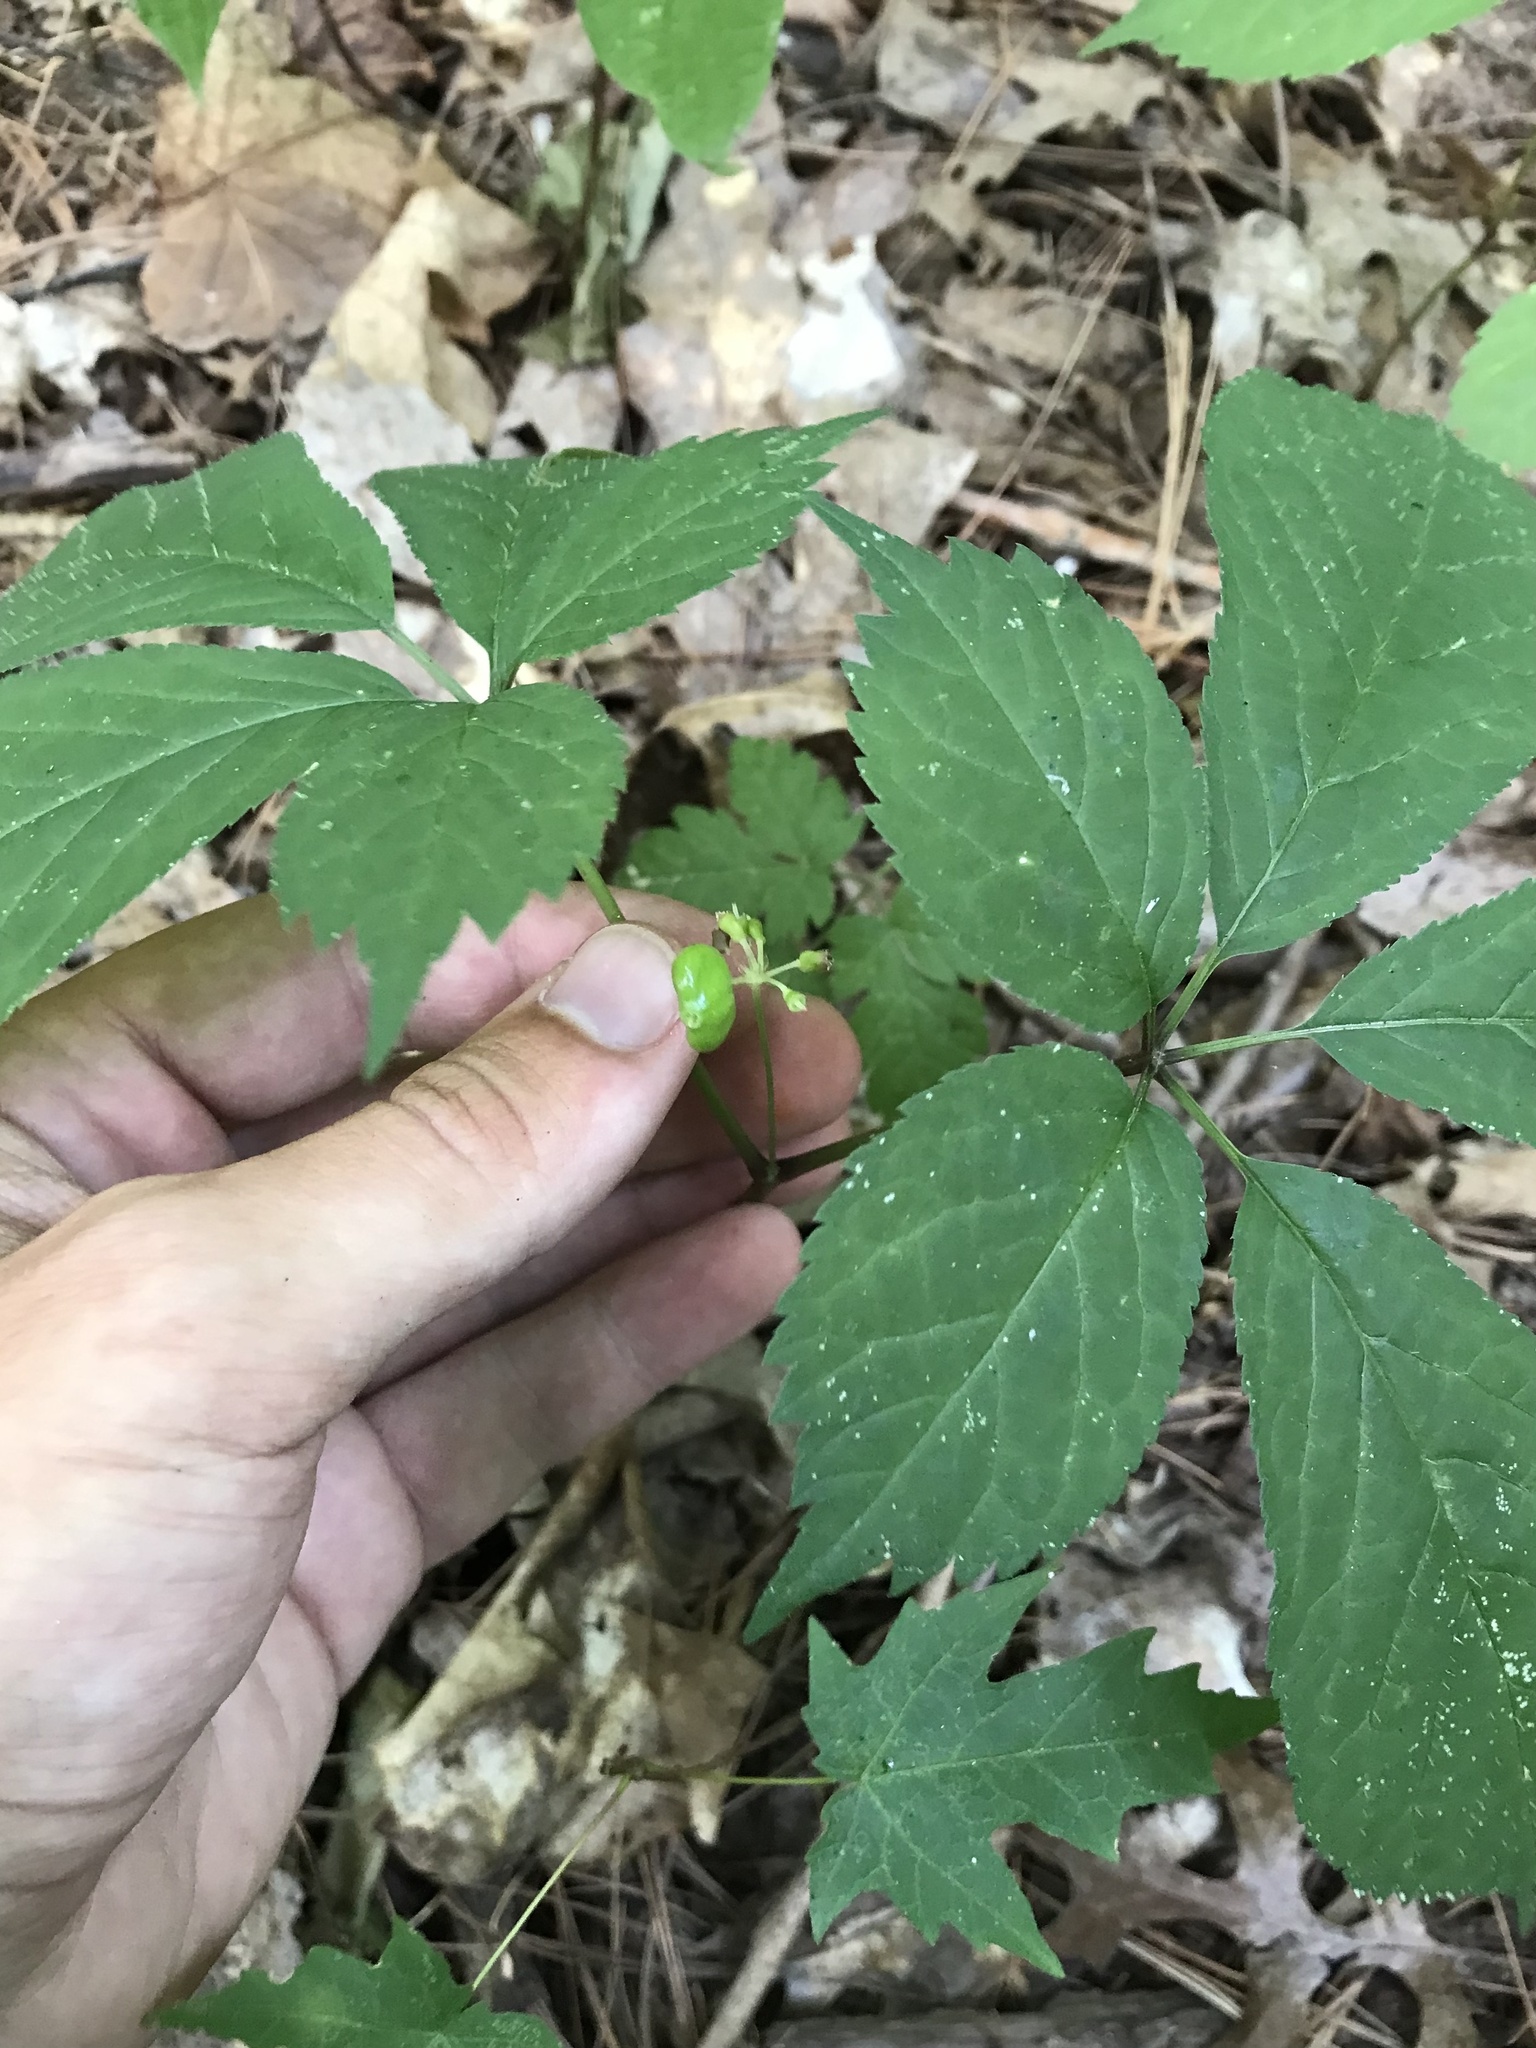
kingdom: Plantae
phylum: Tracheophyta
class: Magnoliopsida
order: Apiales
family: Araliaceae
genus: Panax
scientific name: Panax quinquefolius
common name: American ginseng
